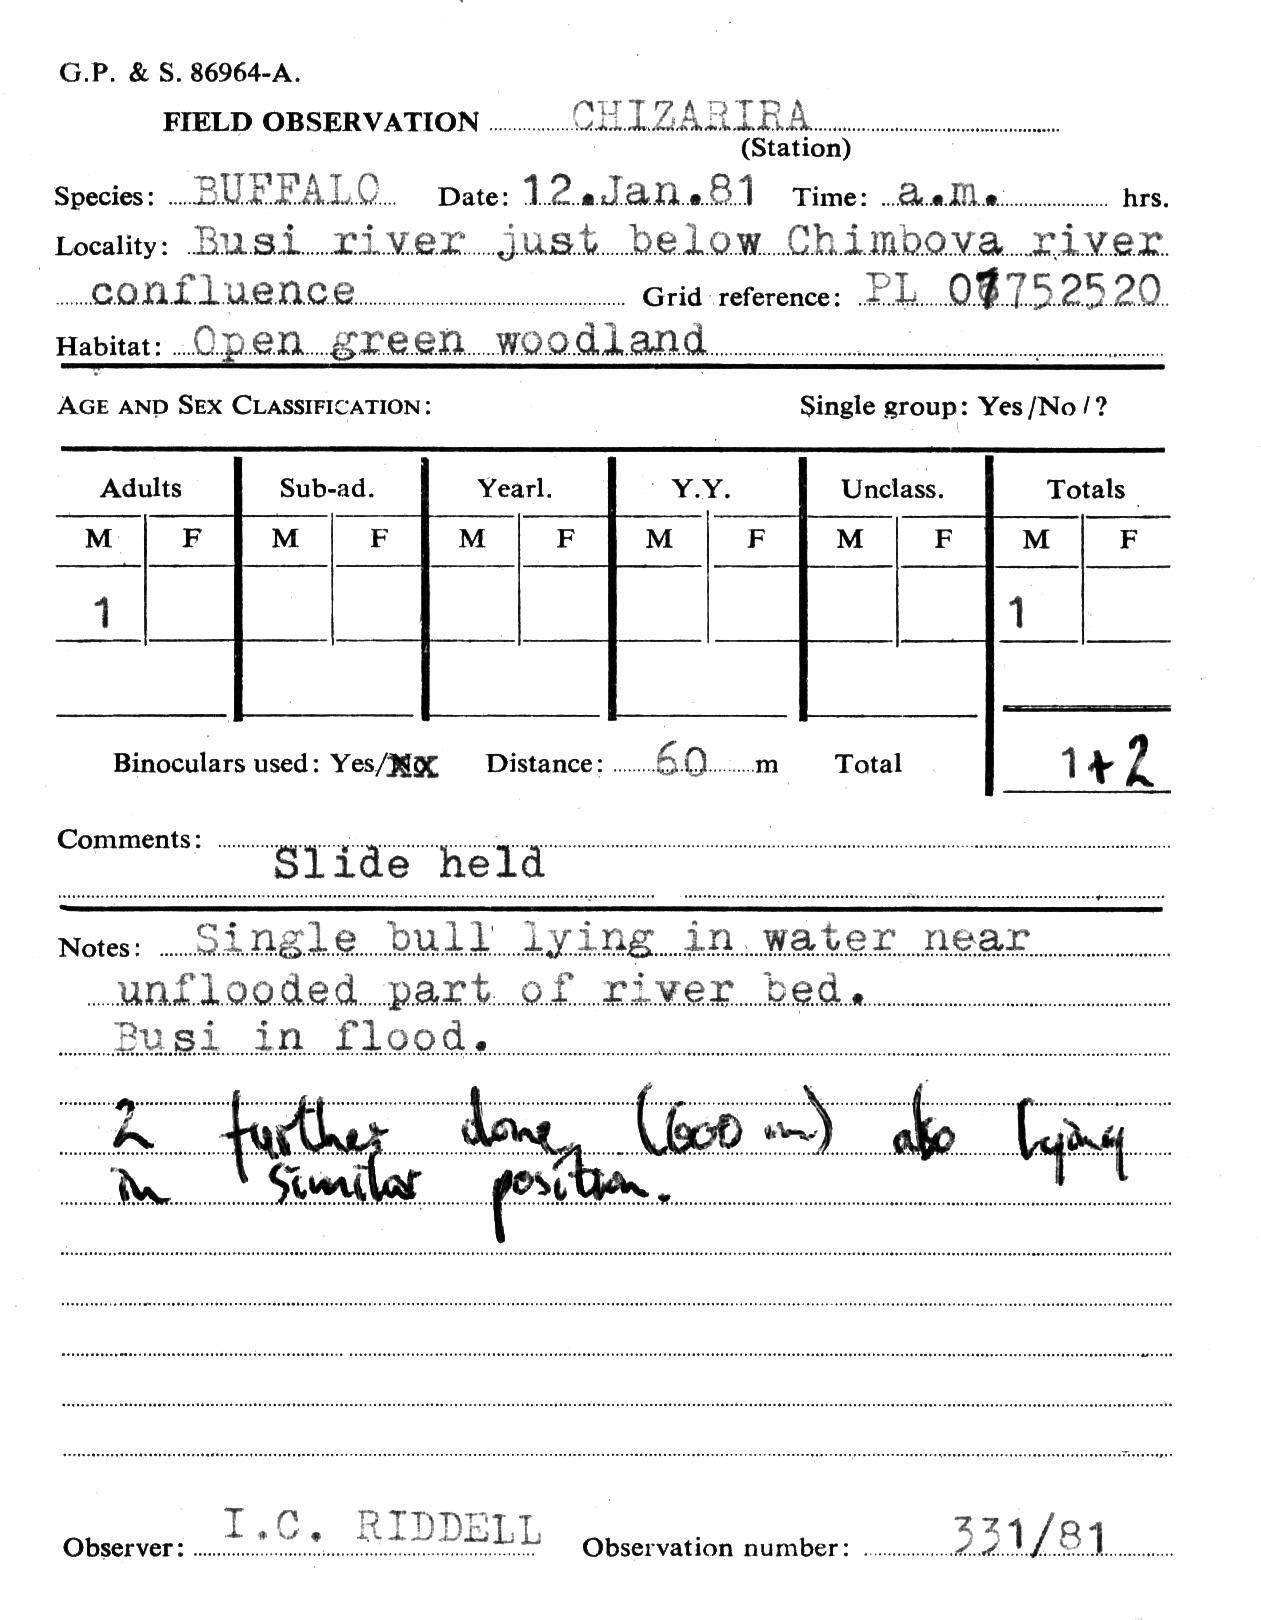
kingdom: Animalia
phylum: Chordata
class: Mammalia
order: Artiodactyla
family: Bovidae
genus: Syncerus
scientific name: Syncerus caffer
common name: African buffalo
